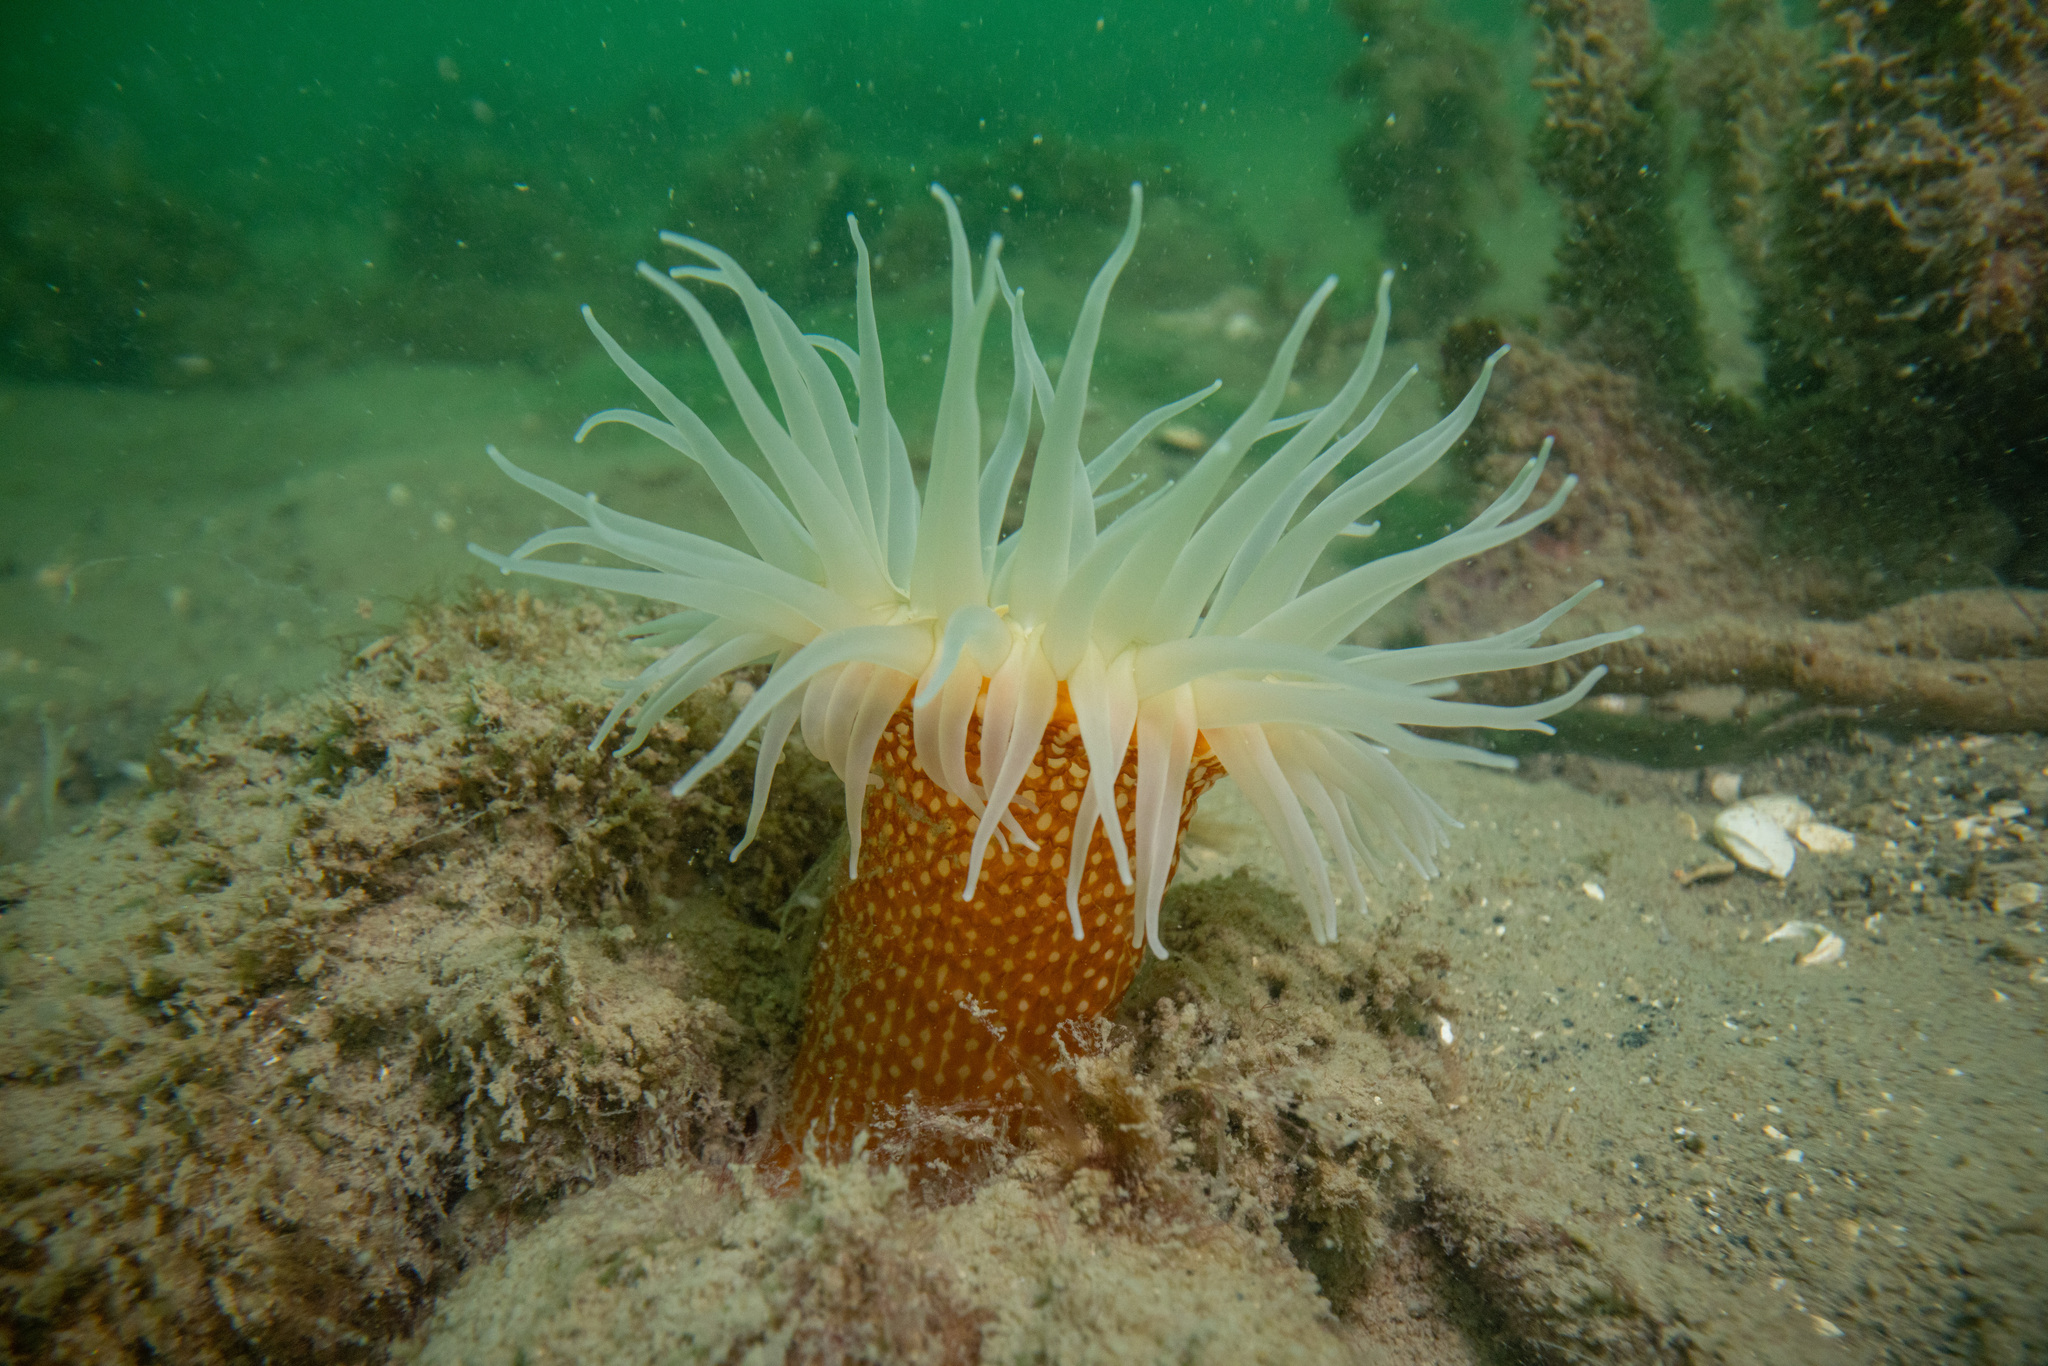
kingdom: Animalia
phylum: Cnidaria
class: Anthozoa
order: Actiniaria
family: Actiniidae
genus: Bunodactis
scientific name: Bunodactis chrysobathys
